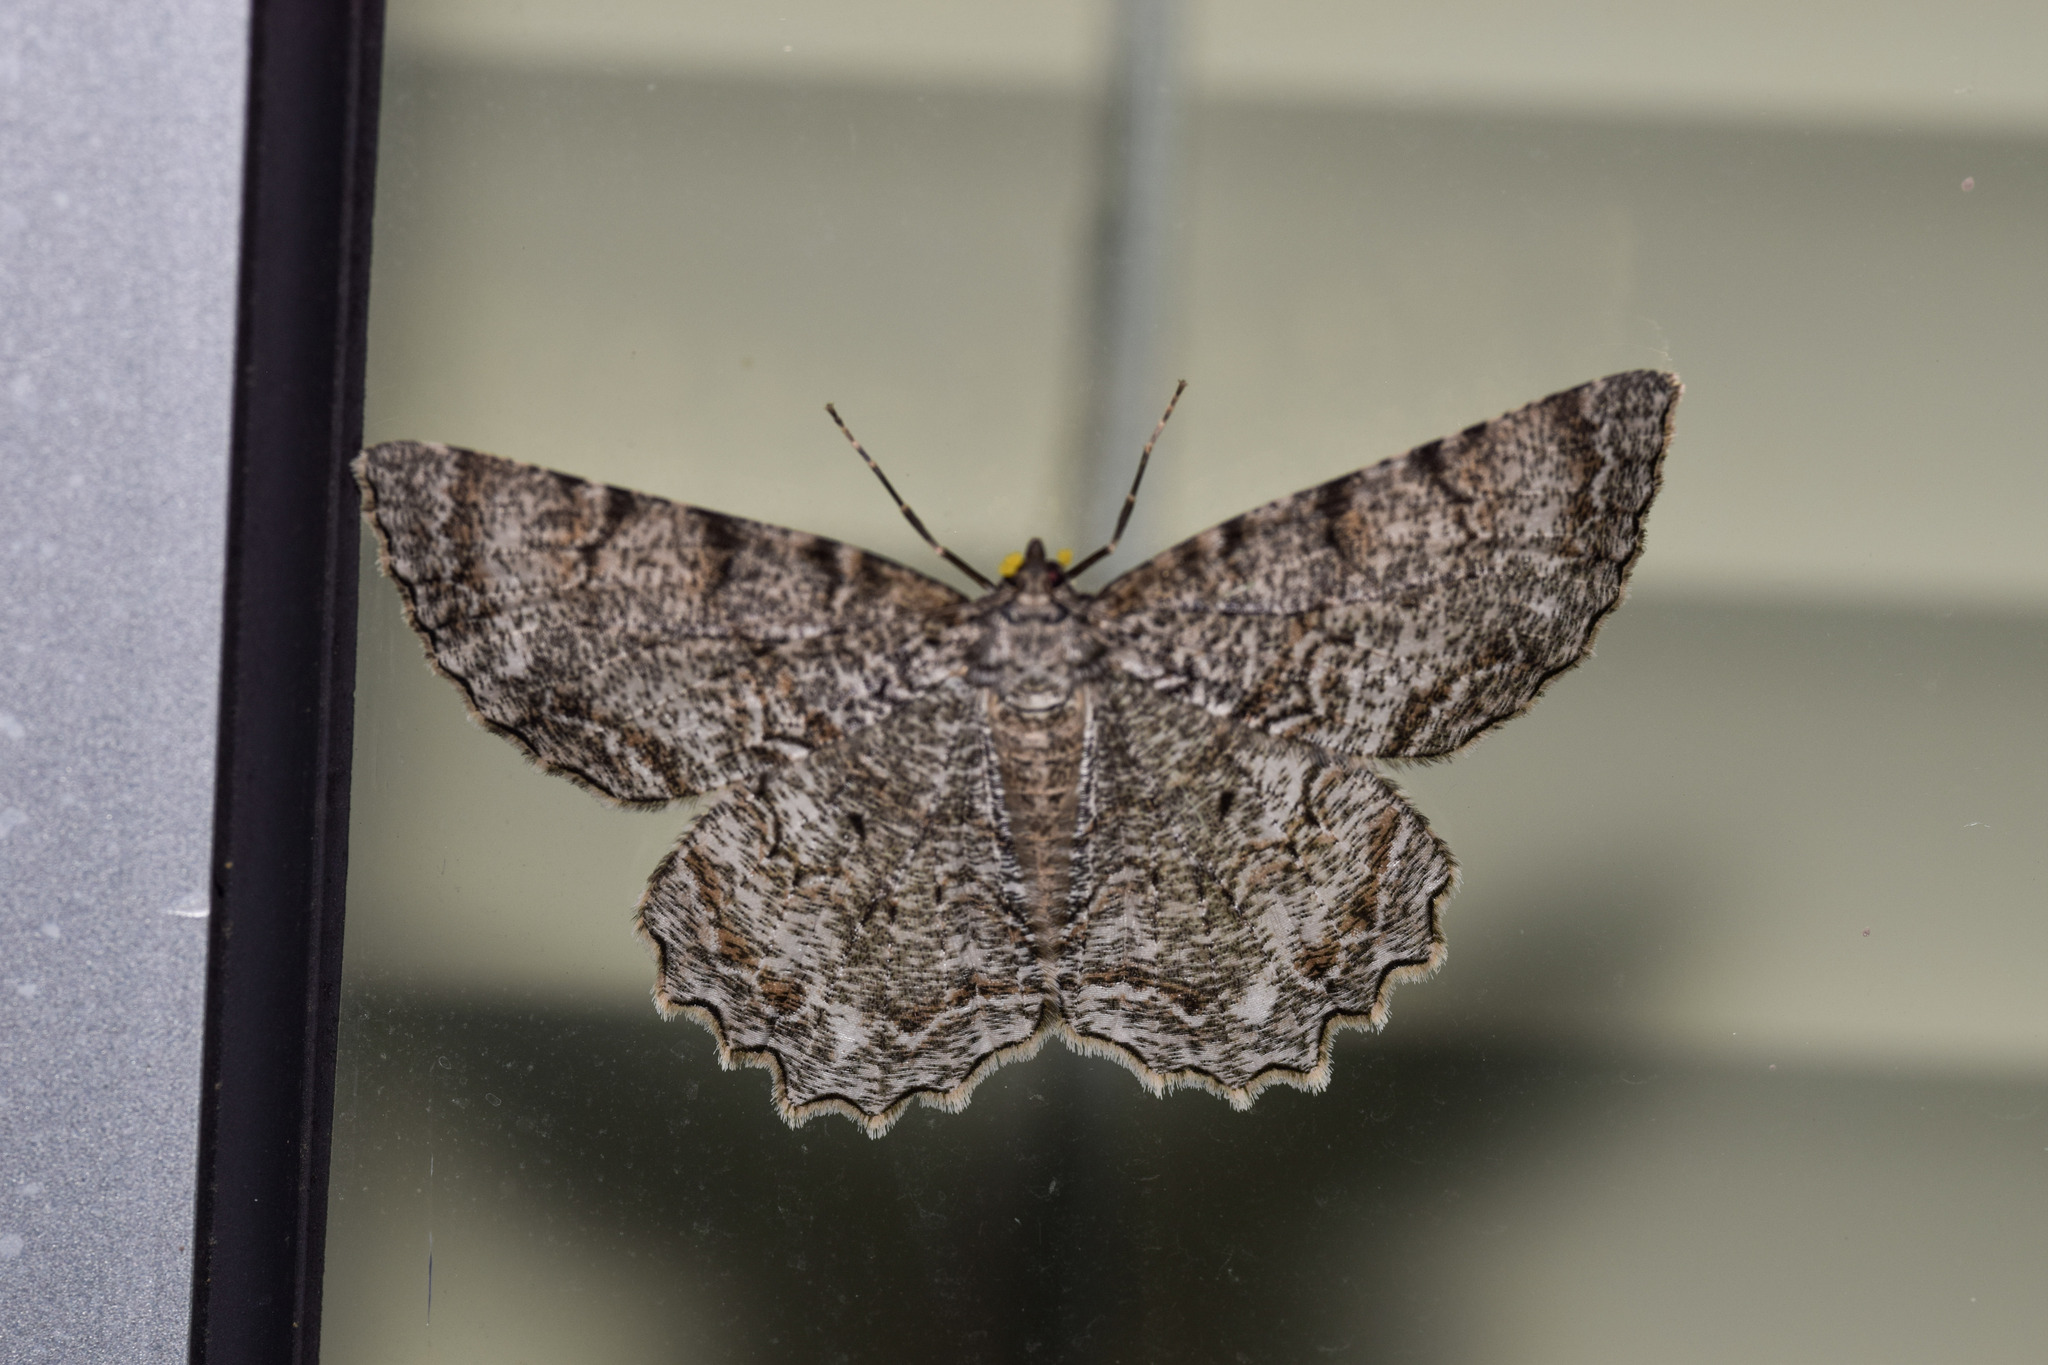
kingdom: Animalia
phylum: Arthropoda
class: Insecta
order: Lepidoptera
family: Geometridae
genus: Epimecis
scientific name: Epimecis hortaria
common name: Tulip-tree beauty
